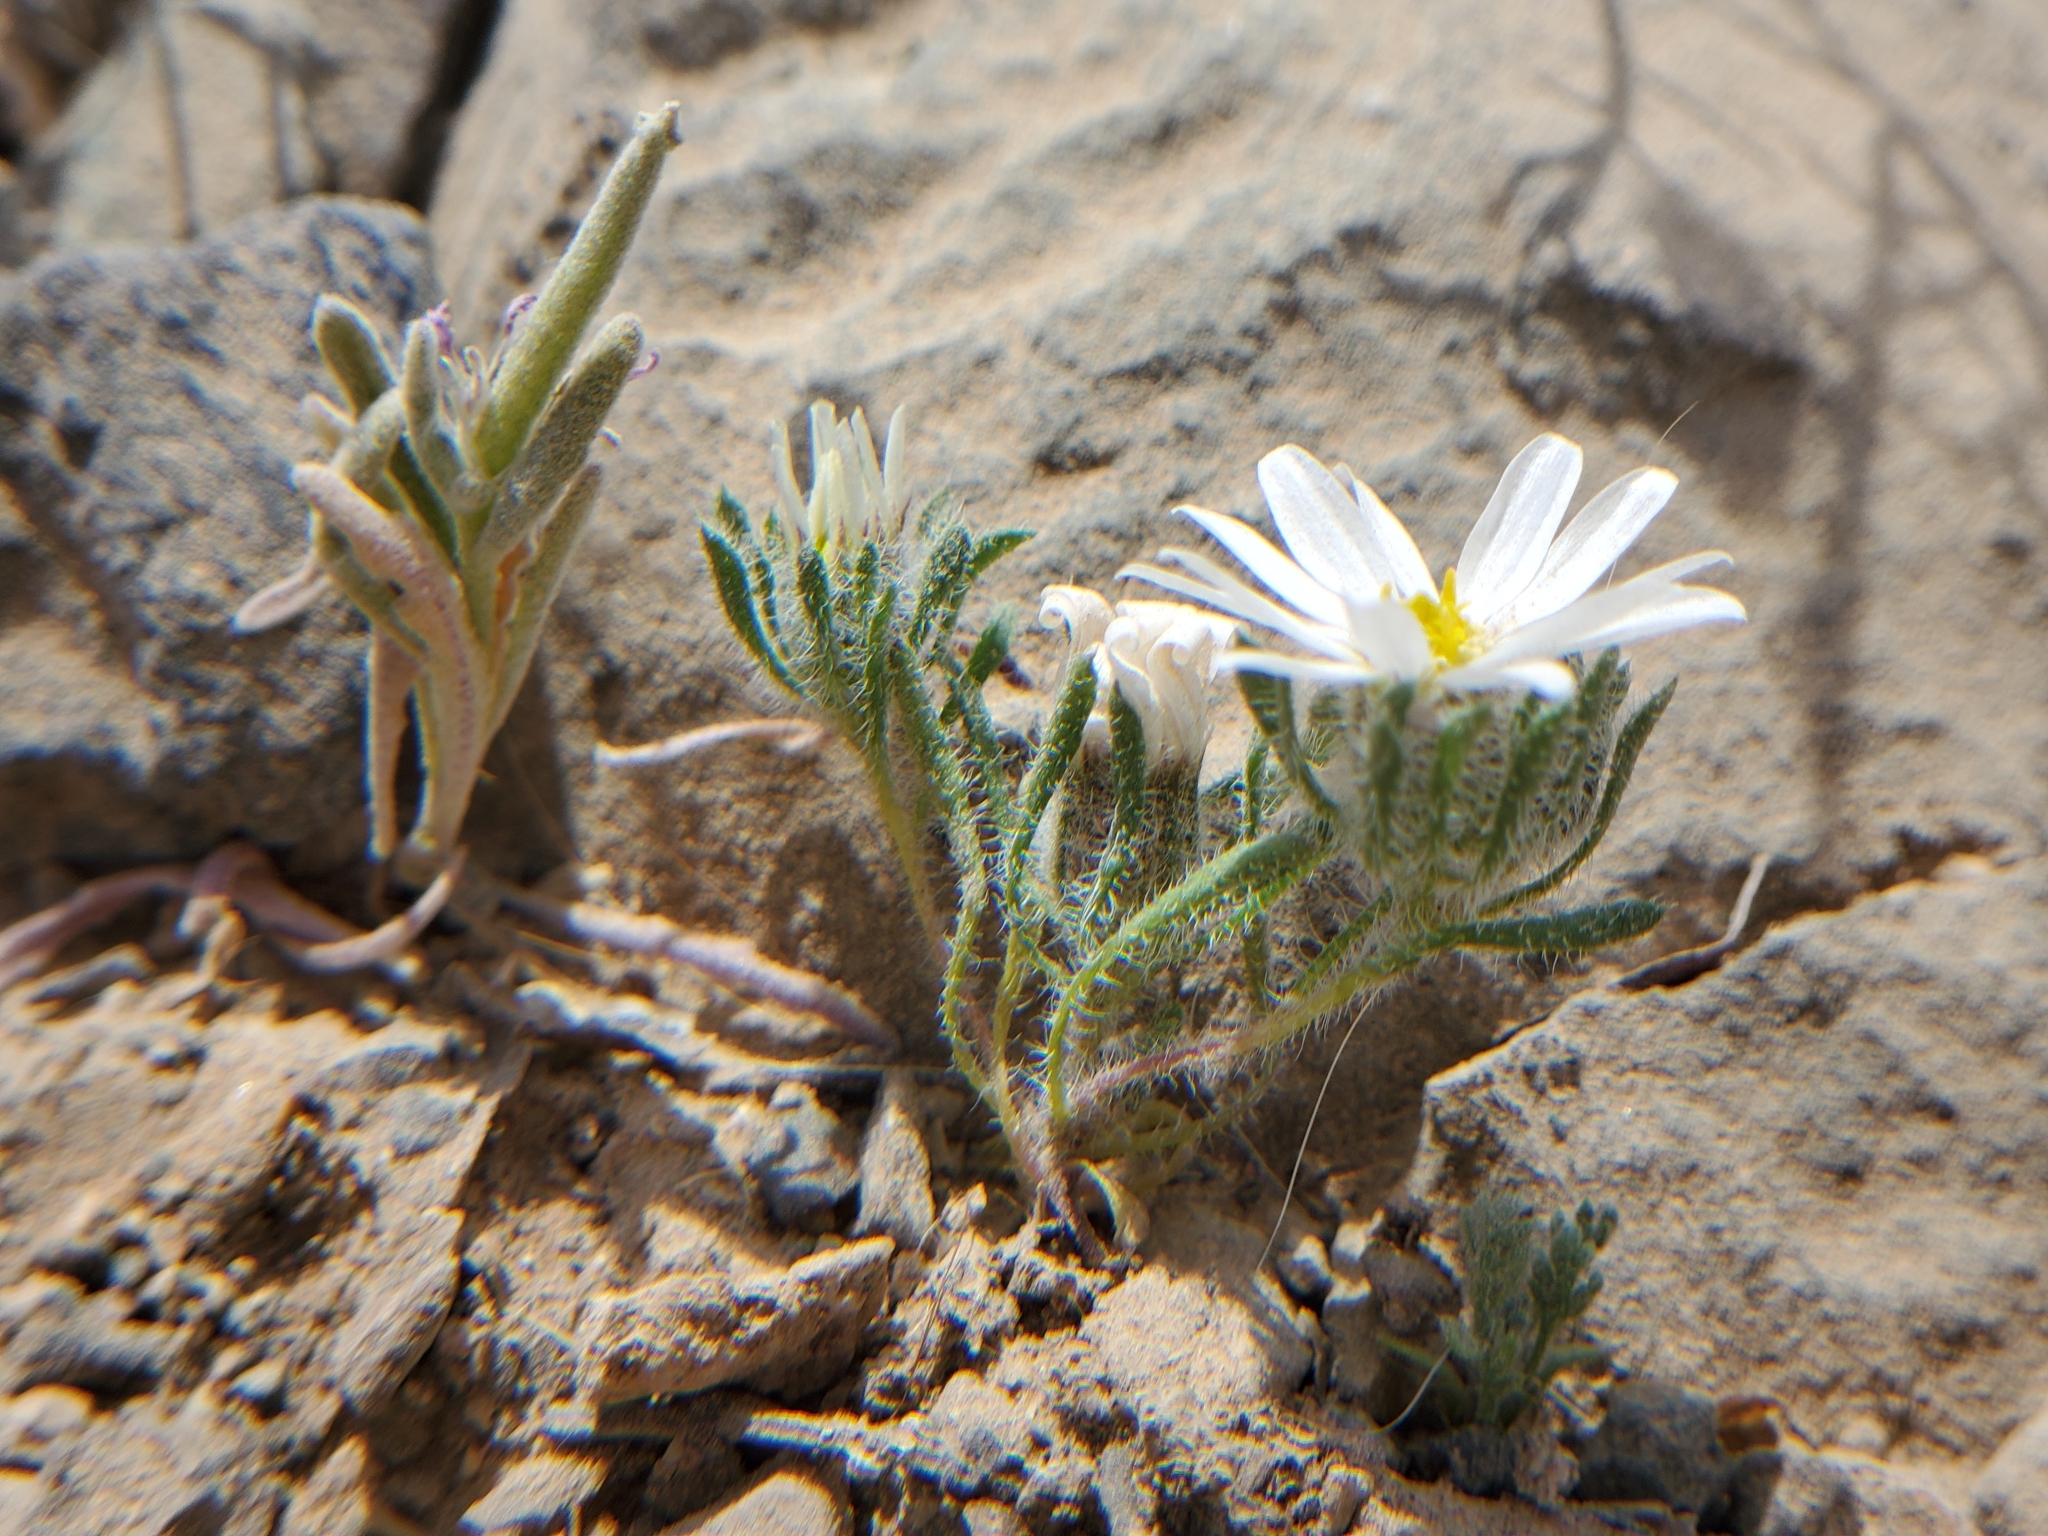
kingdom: Plantae
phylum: Tracheophyta
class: Magnoliopsida
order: Asterales
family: Asteraceae
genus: Monoptilon
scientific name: Monoptilon bellioides
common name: Bristly desertstar
